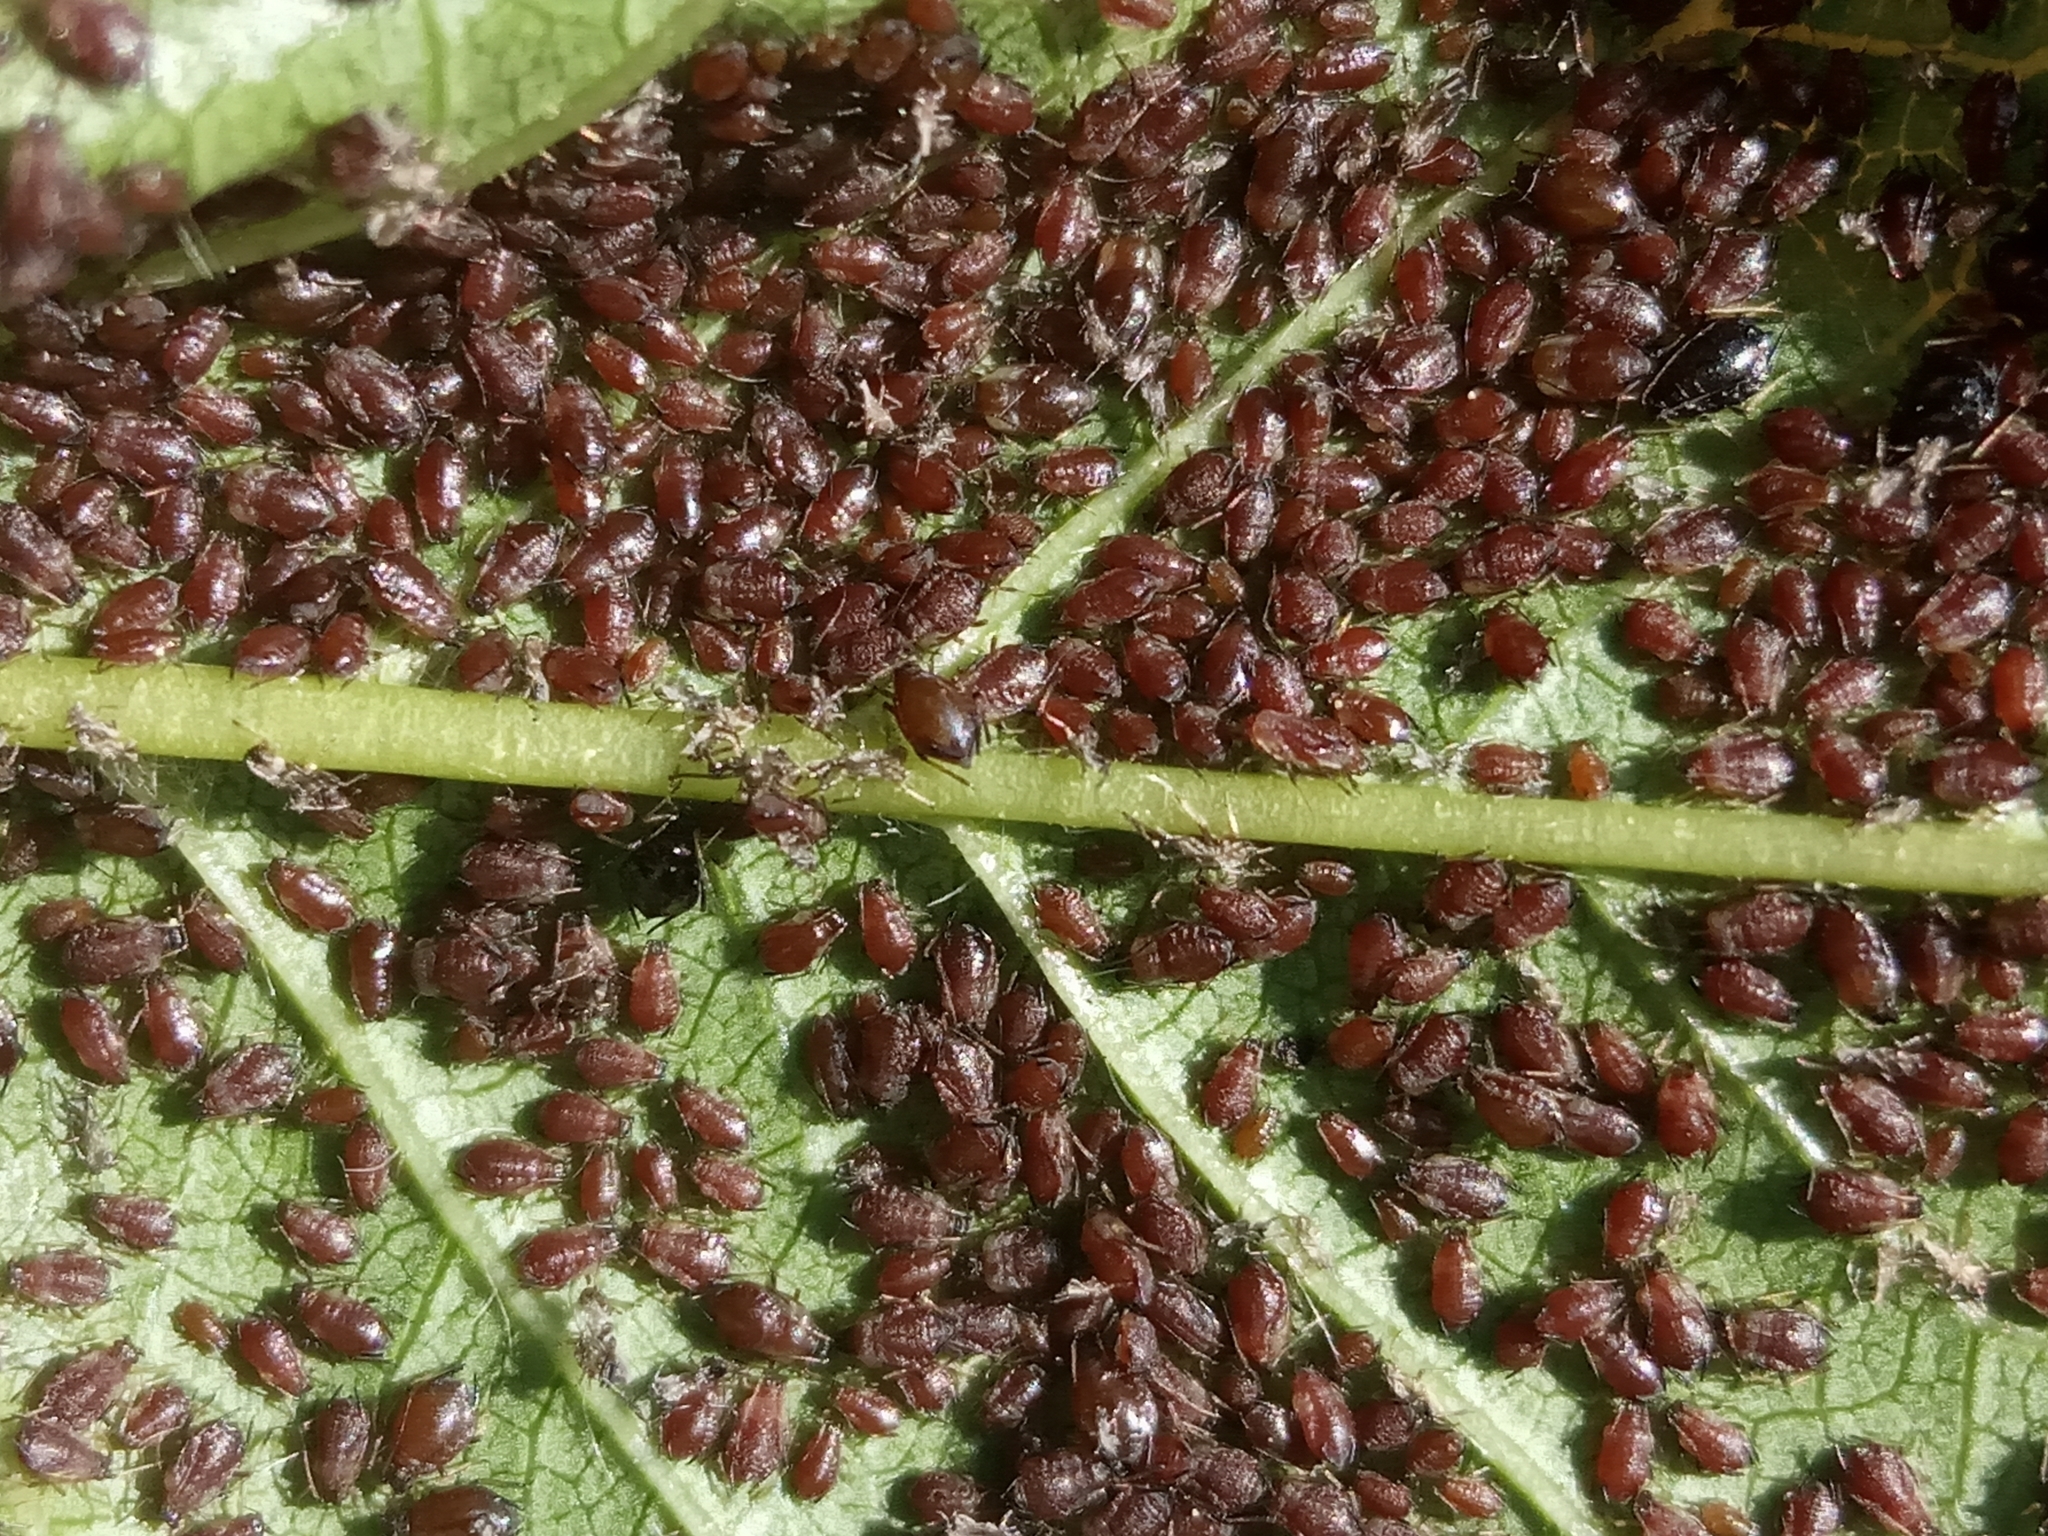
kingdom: Animalia
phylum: Arthropoda
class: Insecta
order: Hemiptera
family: Aphididae
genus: Myzus
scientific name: Myzus cerasi
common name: Black cherry aphid
